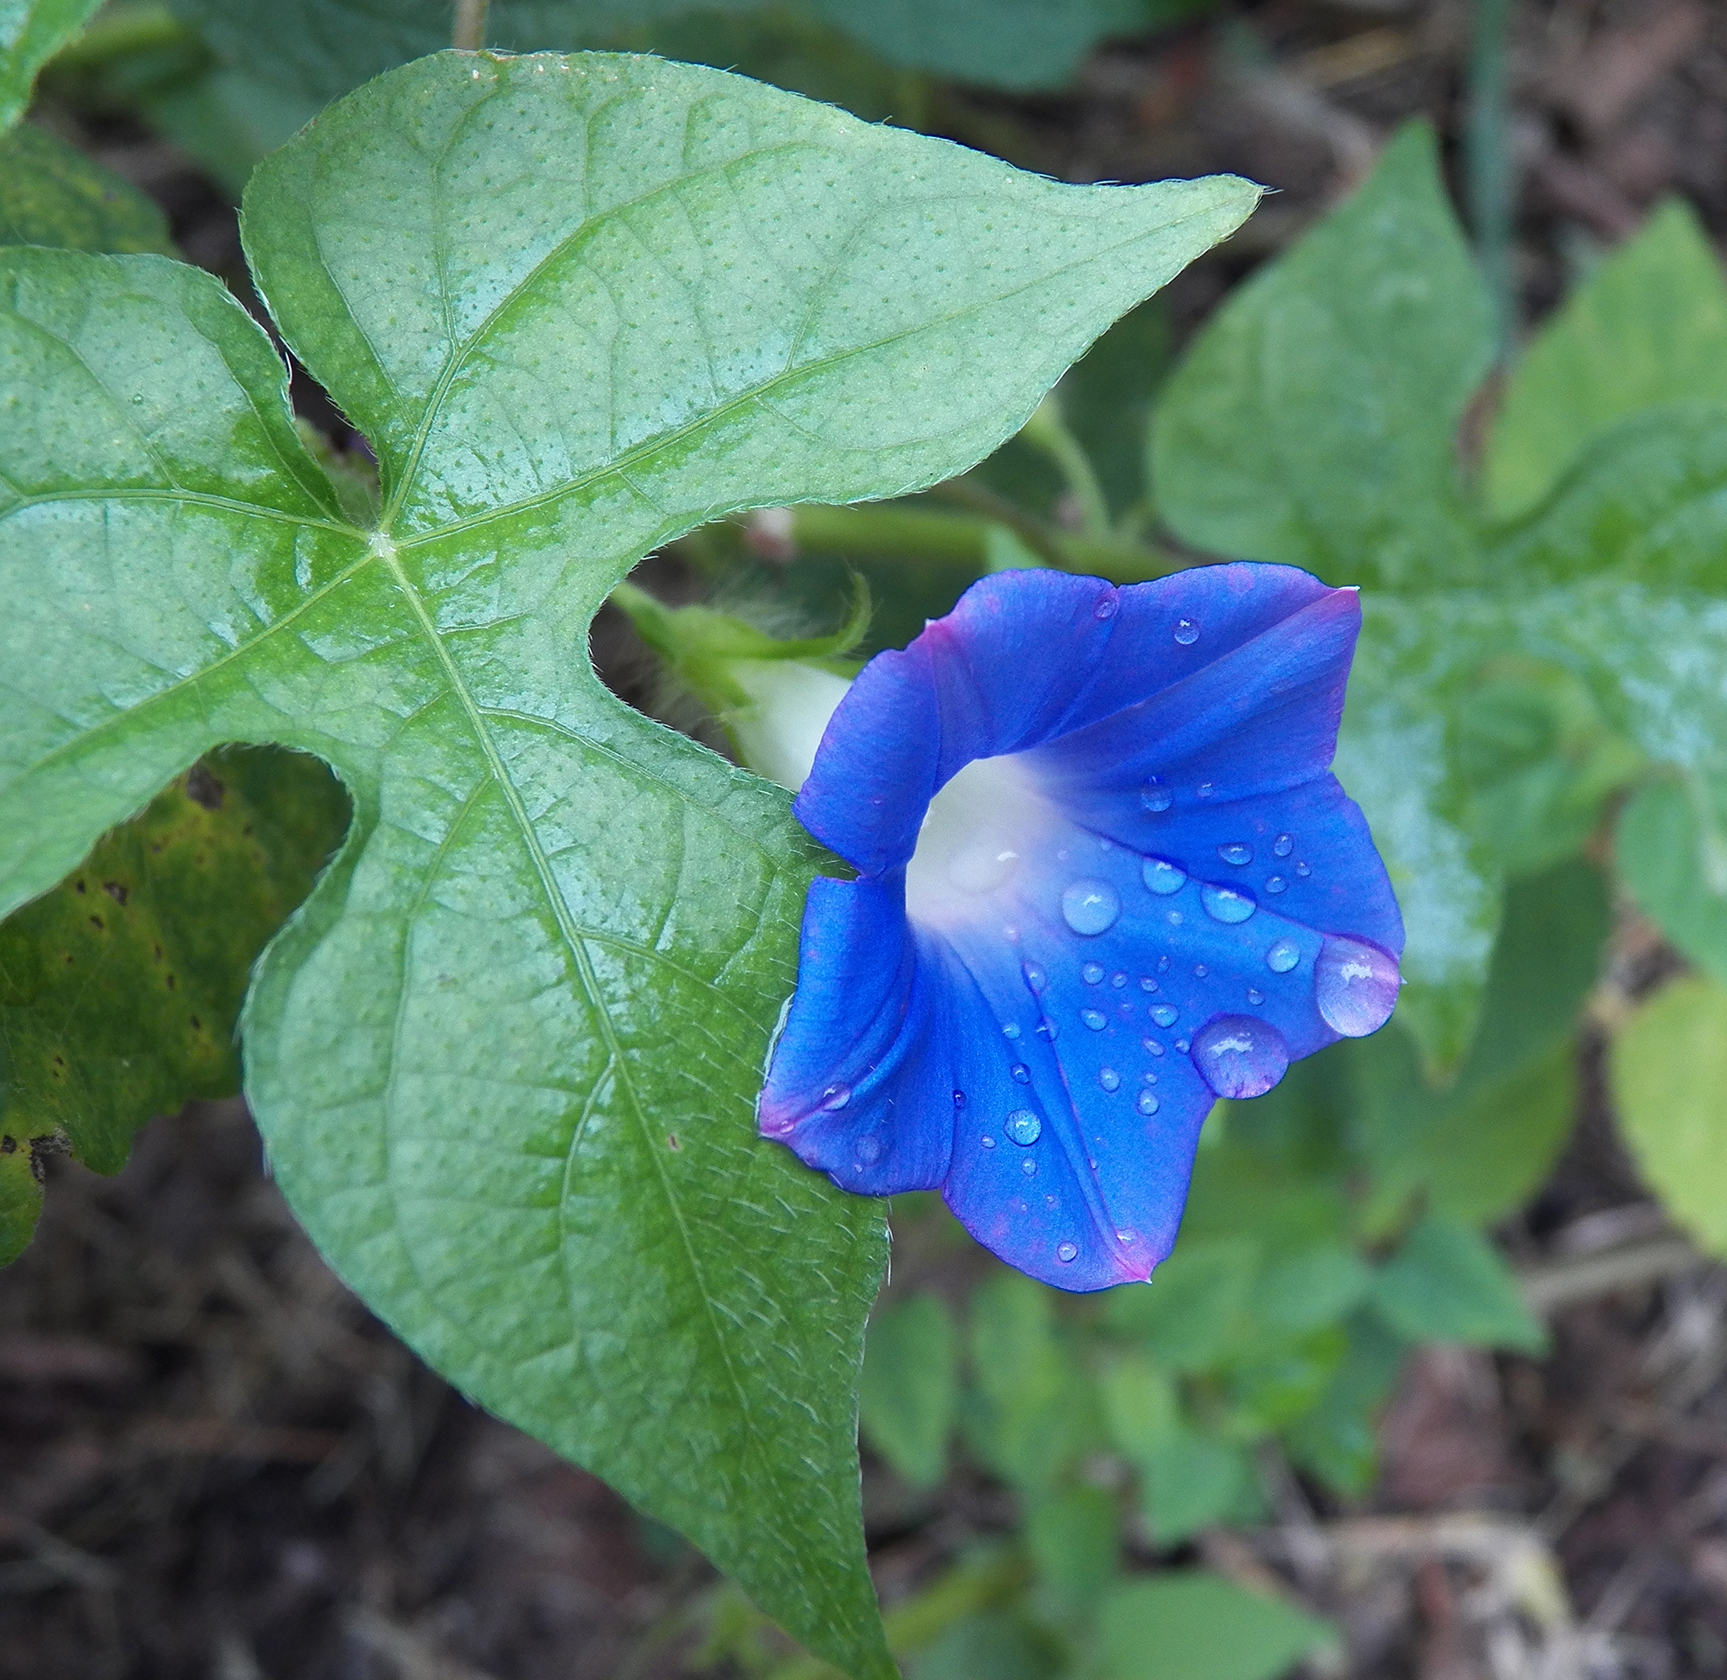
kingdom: Plantae
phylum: Tracheophyta
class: Magnoliopsida
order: Solanales
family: Convolvulaceae
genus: Ipomoea
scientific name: Ipomoea hederacea
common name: Ivy-leaved morning-glory
